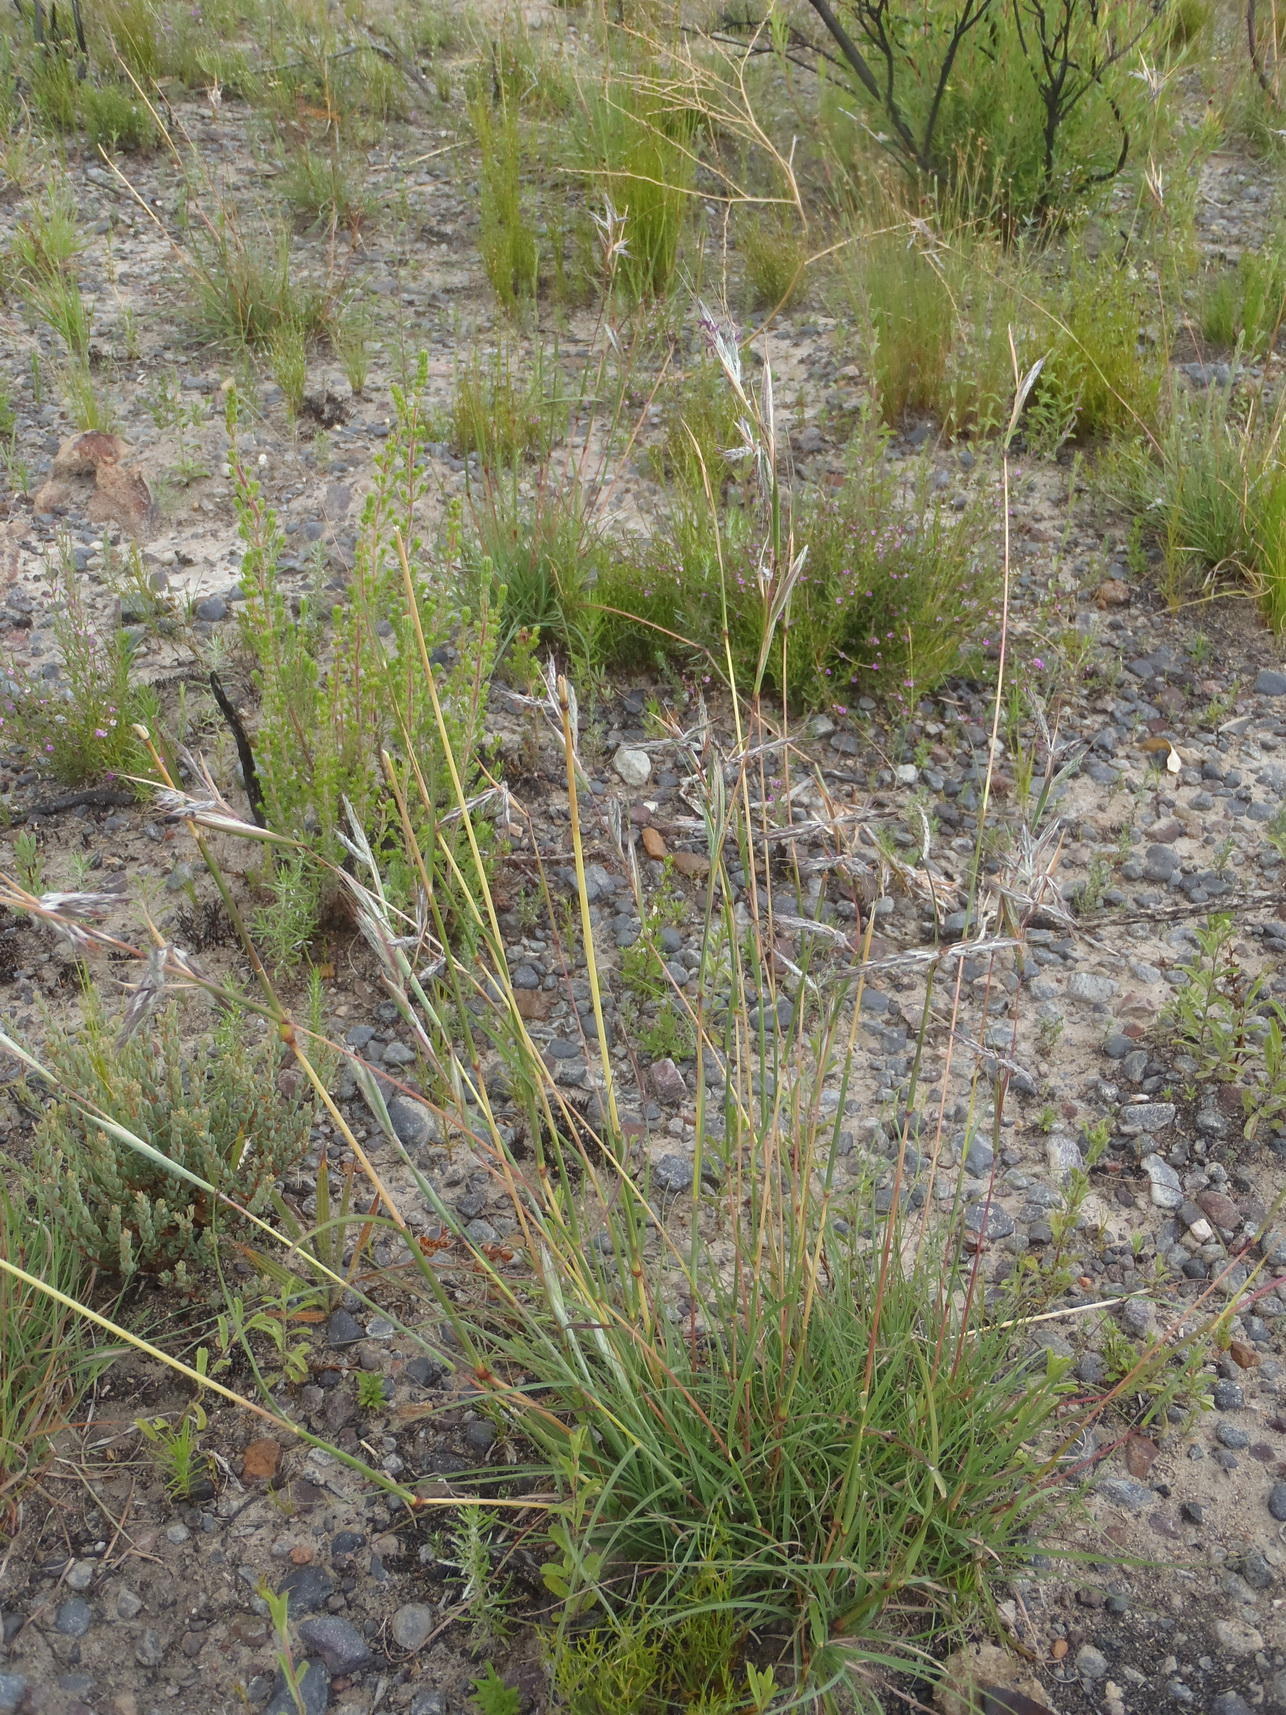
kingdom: Plantae
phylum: Tracheophyta
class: Liliopsida
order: Poales
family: Poaceae
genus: Cymbopogon
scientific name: Cymbopogon pospischilii
